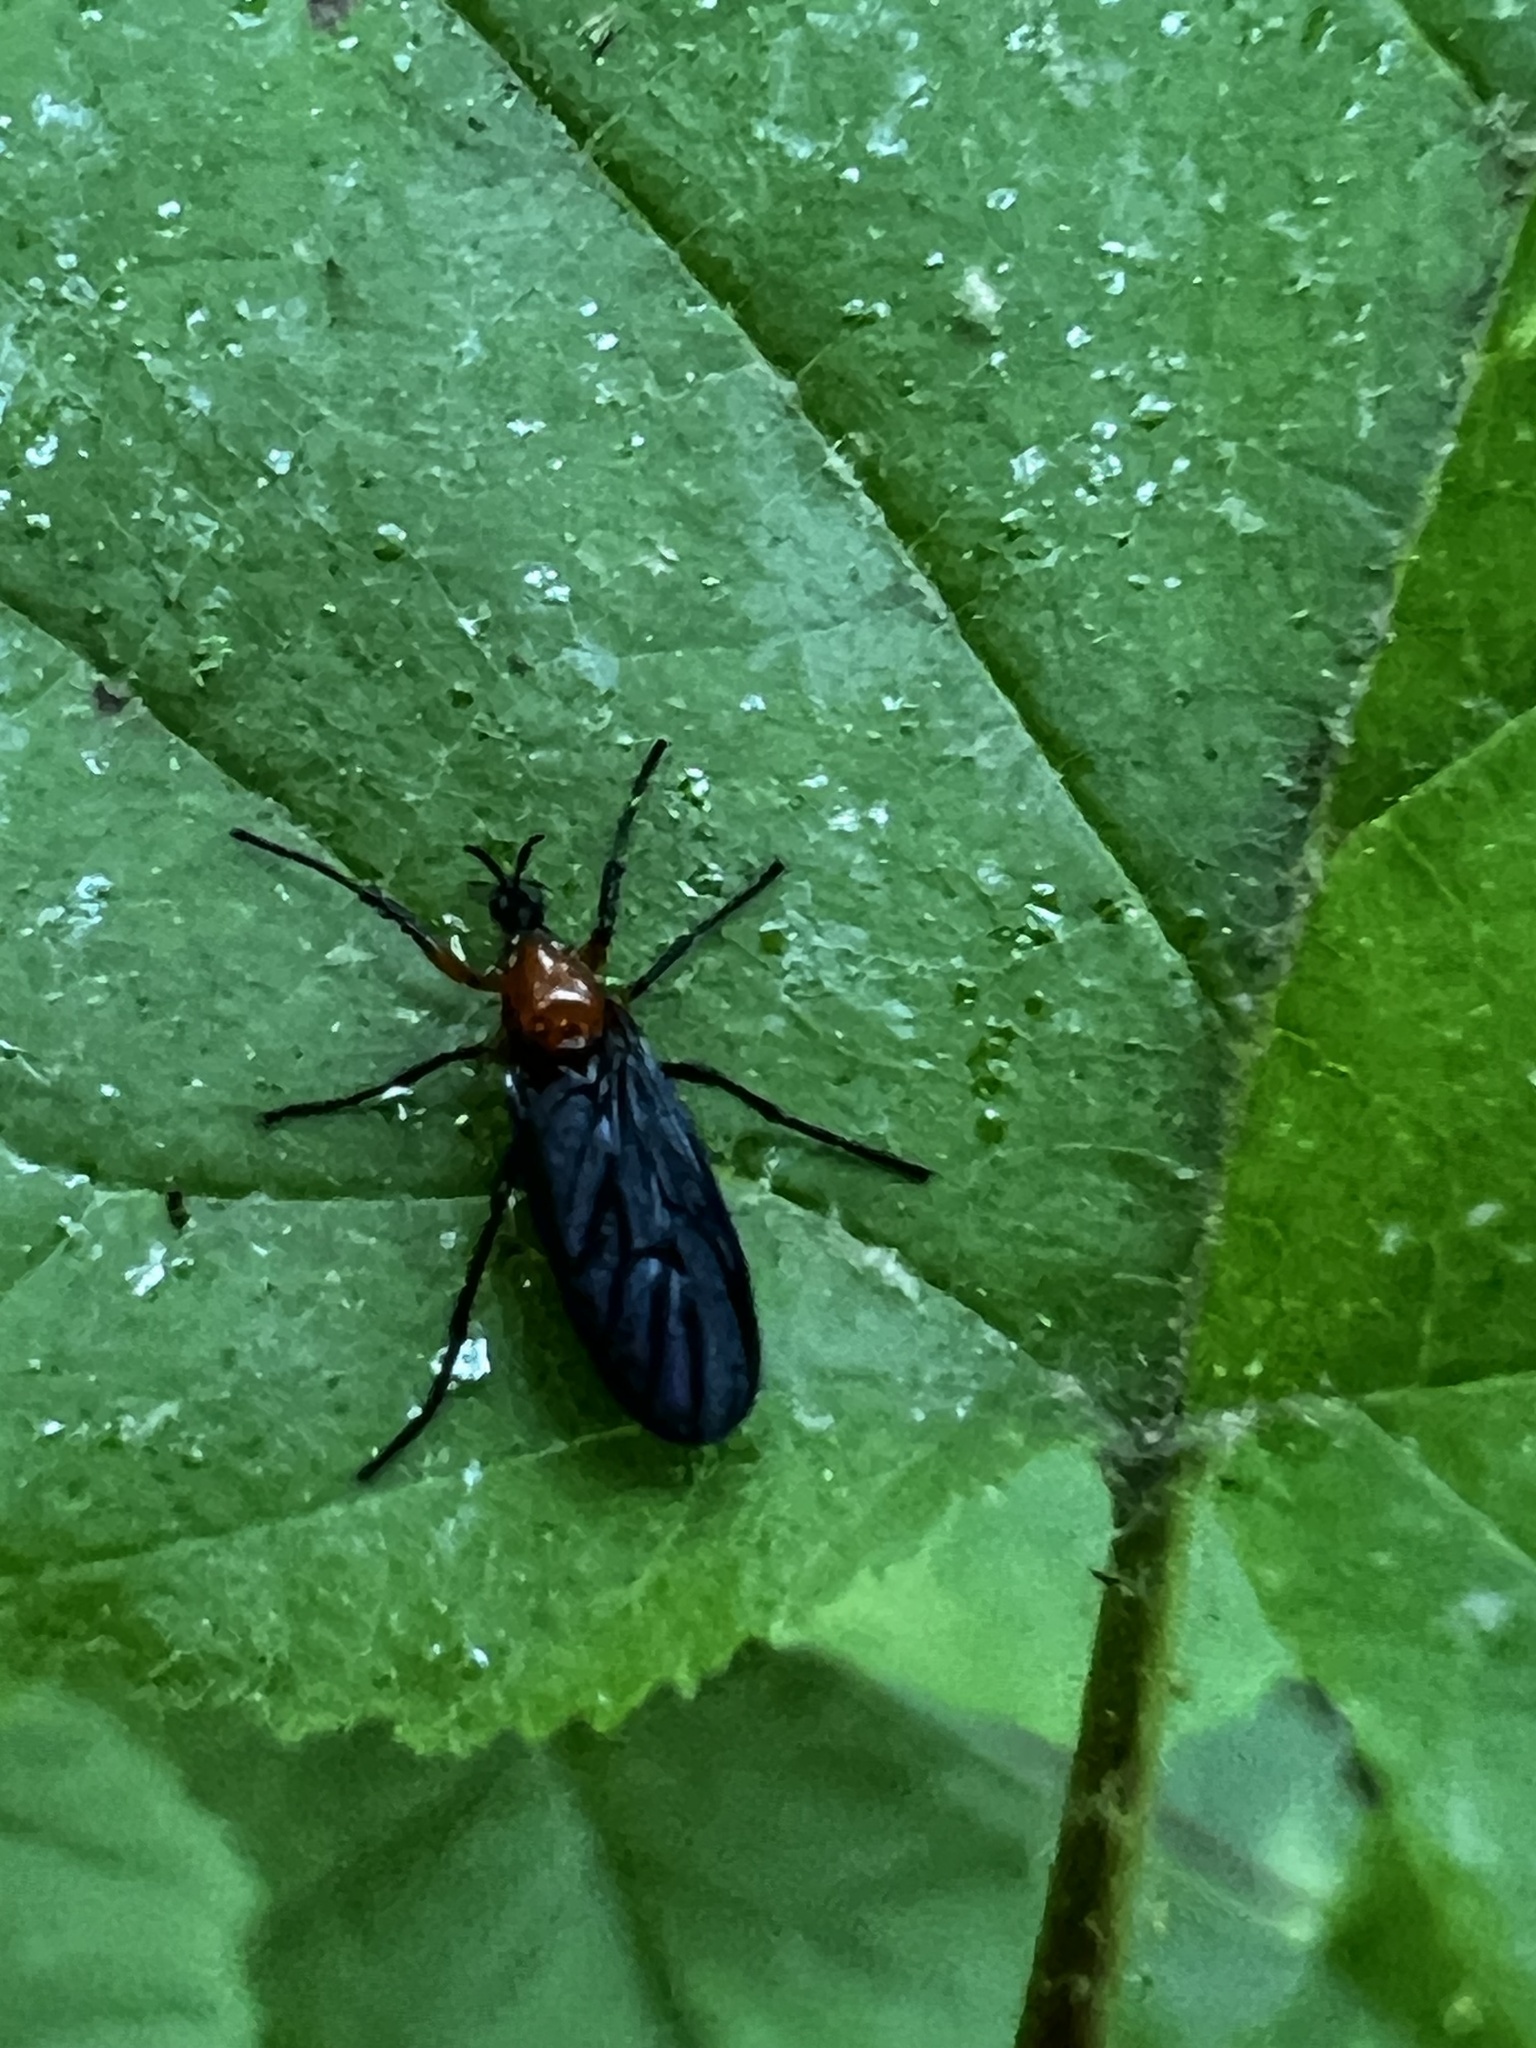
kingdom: Animalia
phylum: Arthropoda
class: Insecta
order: Diptera
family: Bibionidae
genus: Dilophus
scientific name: Dilophus spinipes
